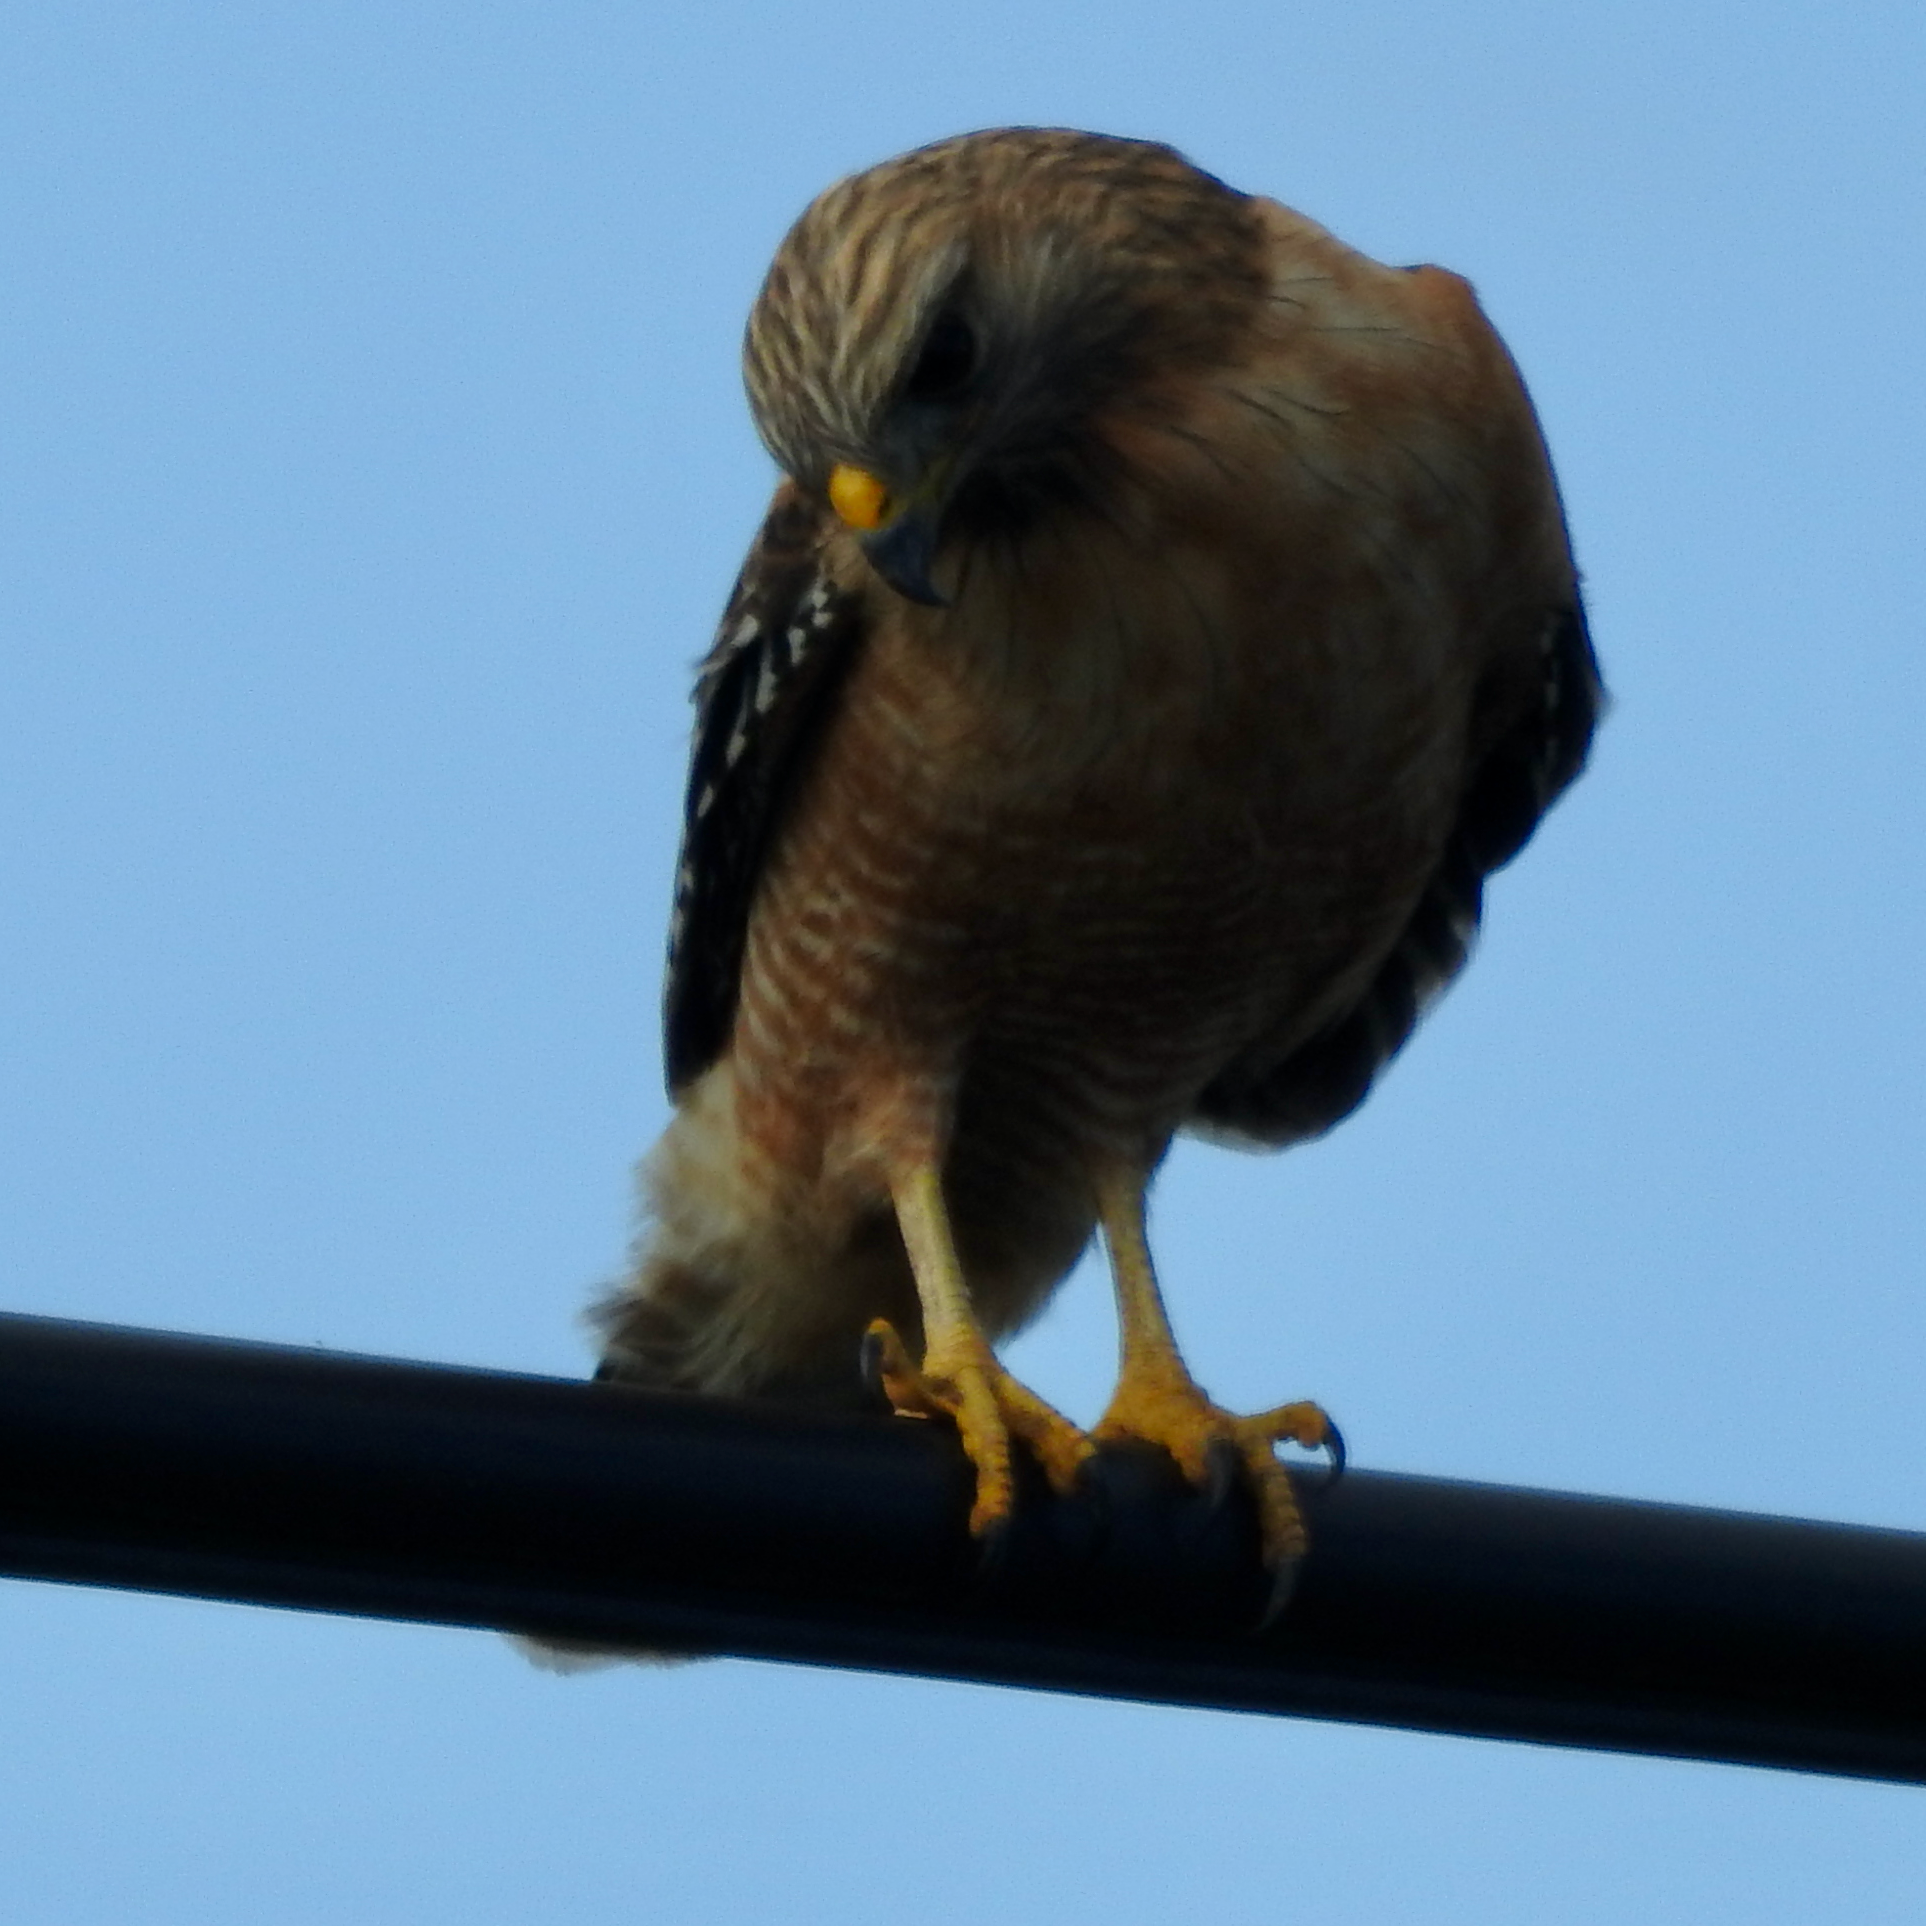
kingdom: Animalia
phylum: Chordata
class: Aves
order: Accipitriformes
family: Accipitridae
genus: Buteo
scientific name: Buteo lineatus
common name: Red-shouldered hawk
